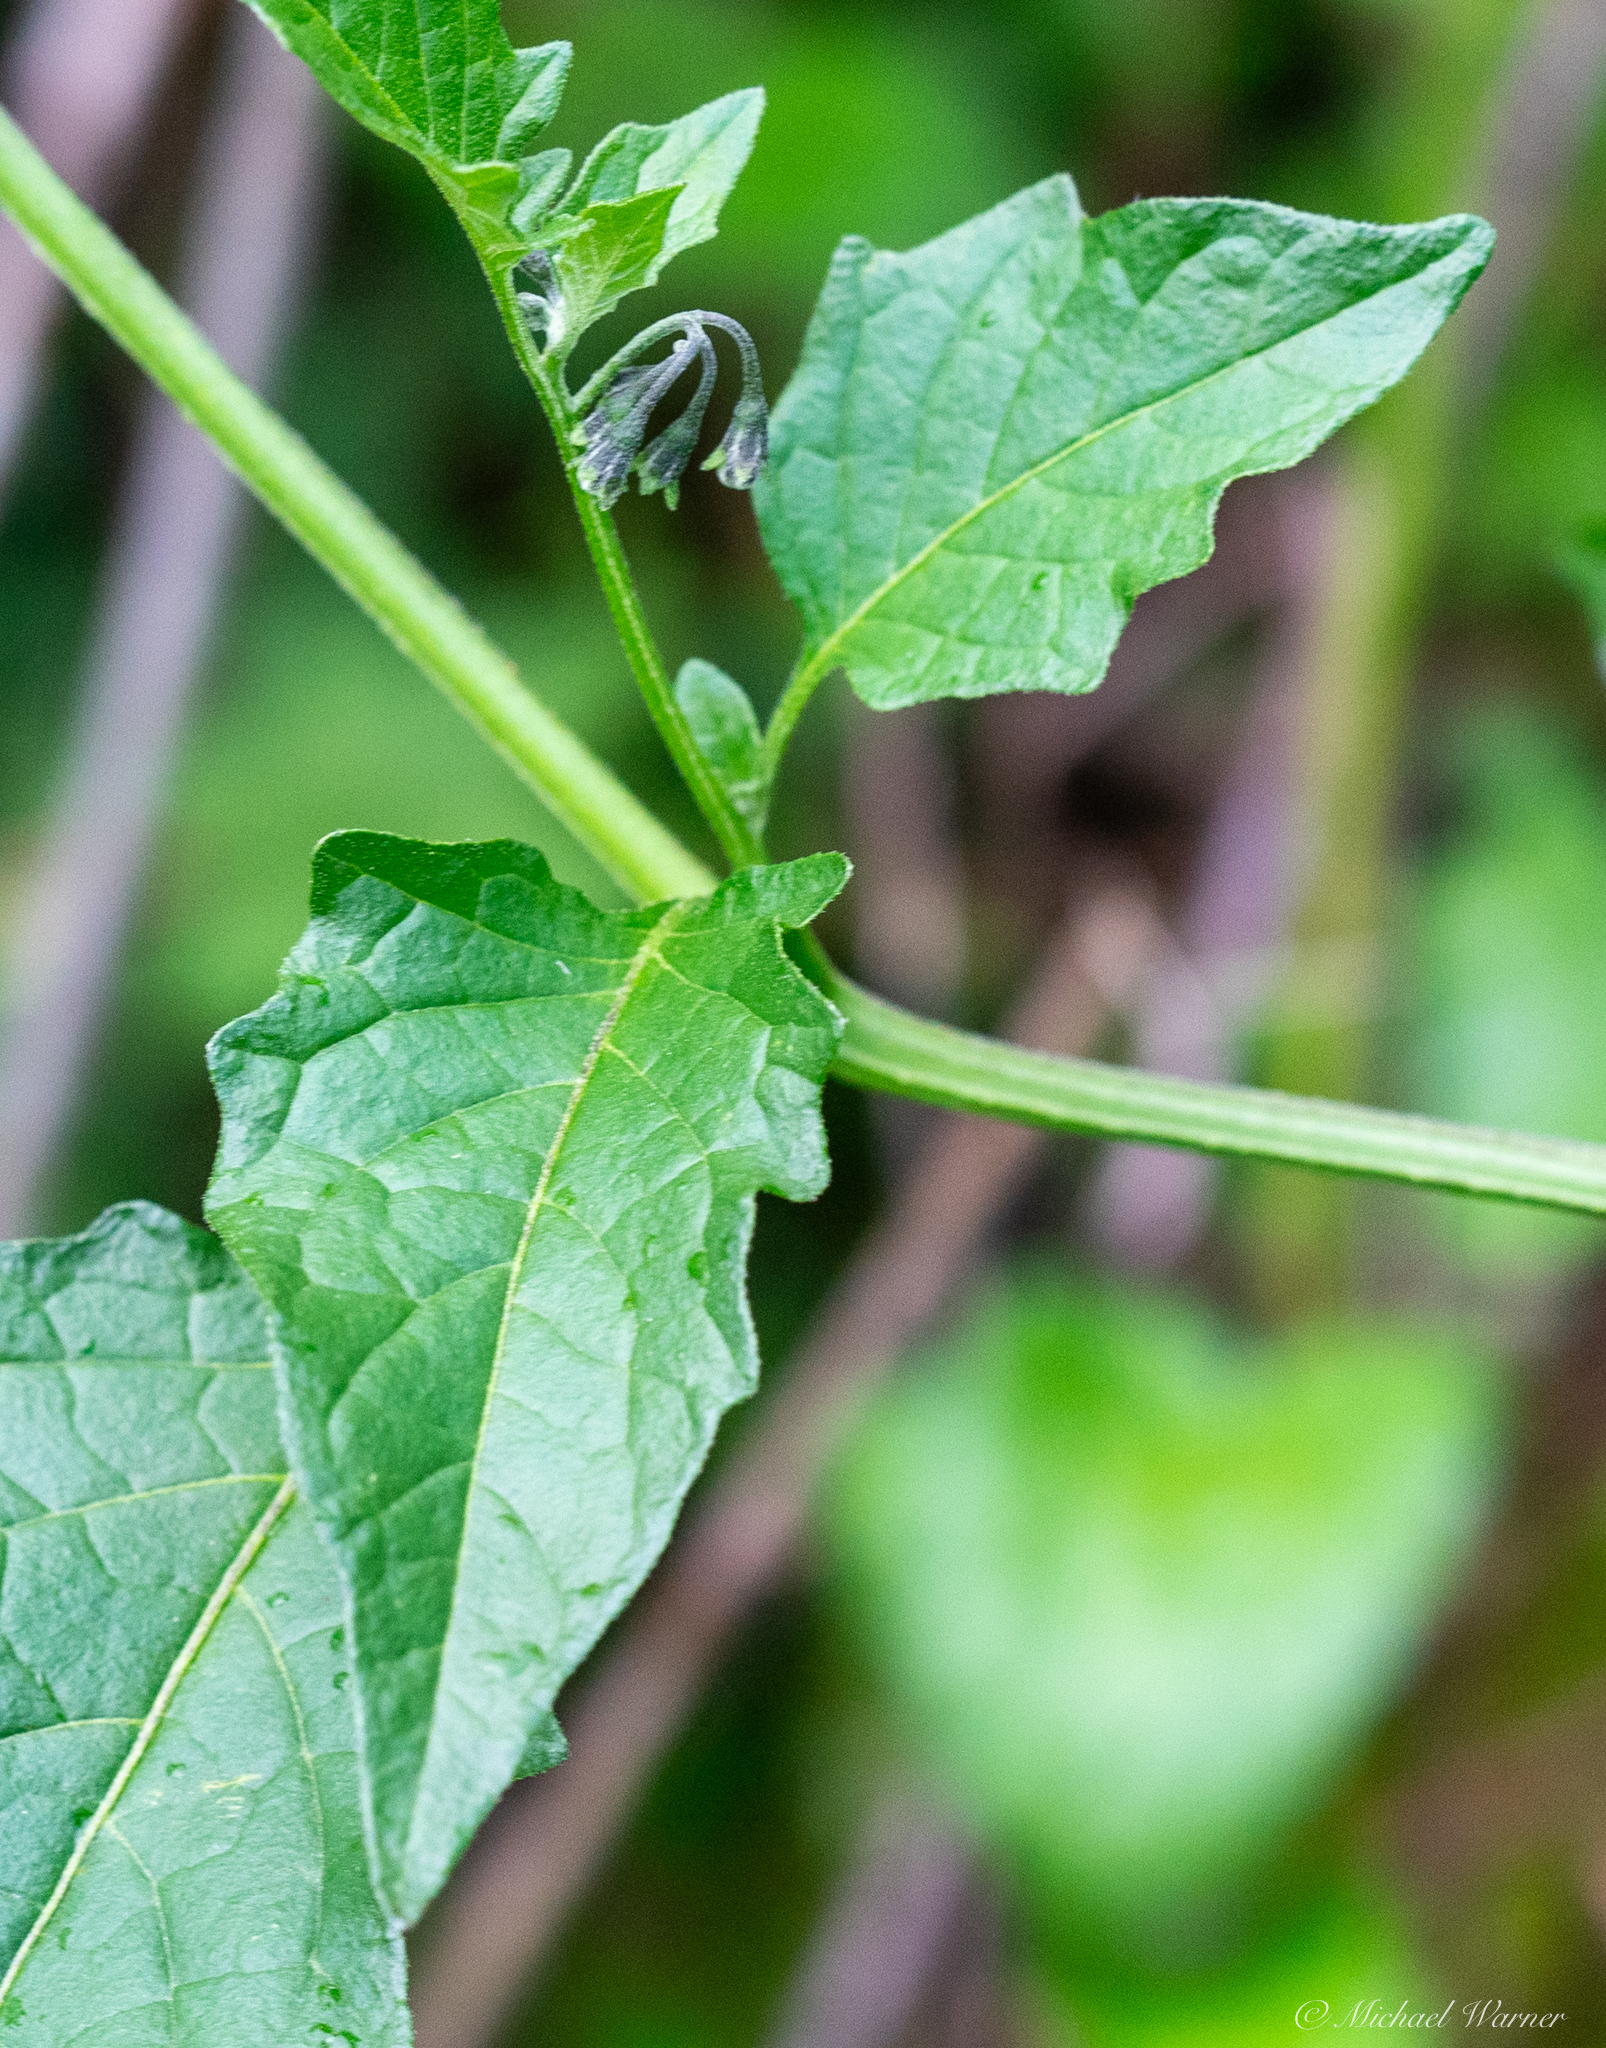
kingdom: Plantae
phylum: Tracheophyta
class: Magnoliopsida
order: Solanales
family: Solanaceae
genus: Solanum
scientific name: Solanum furcatum
